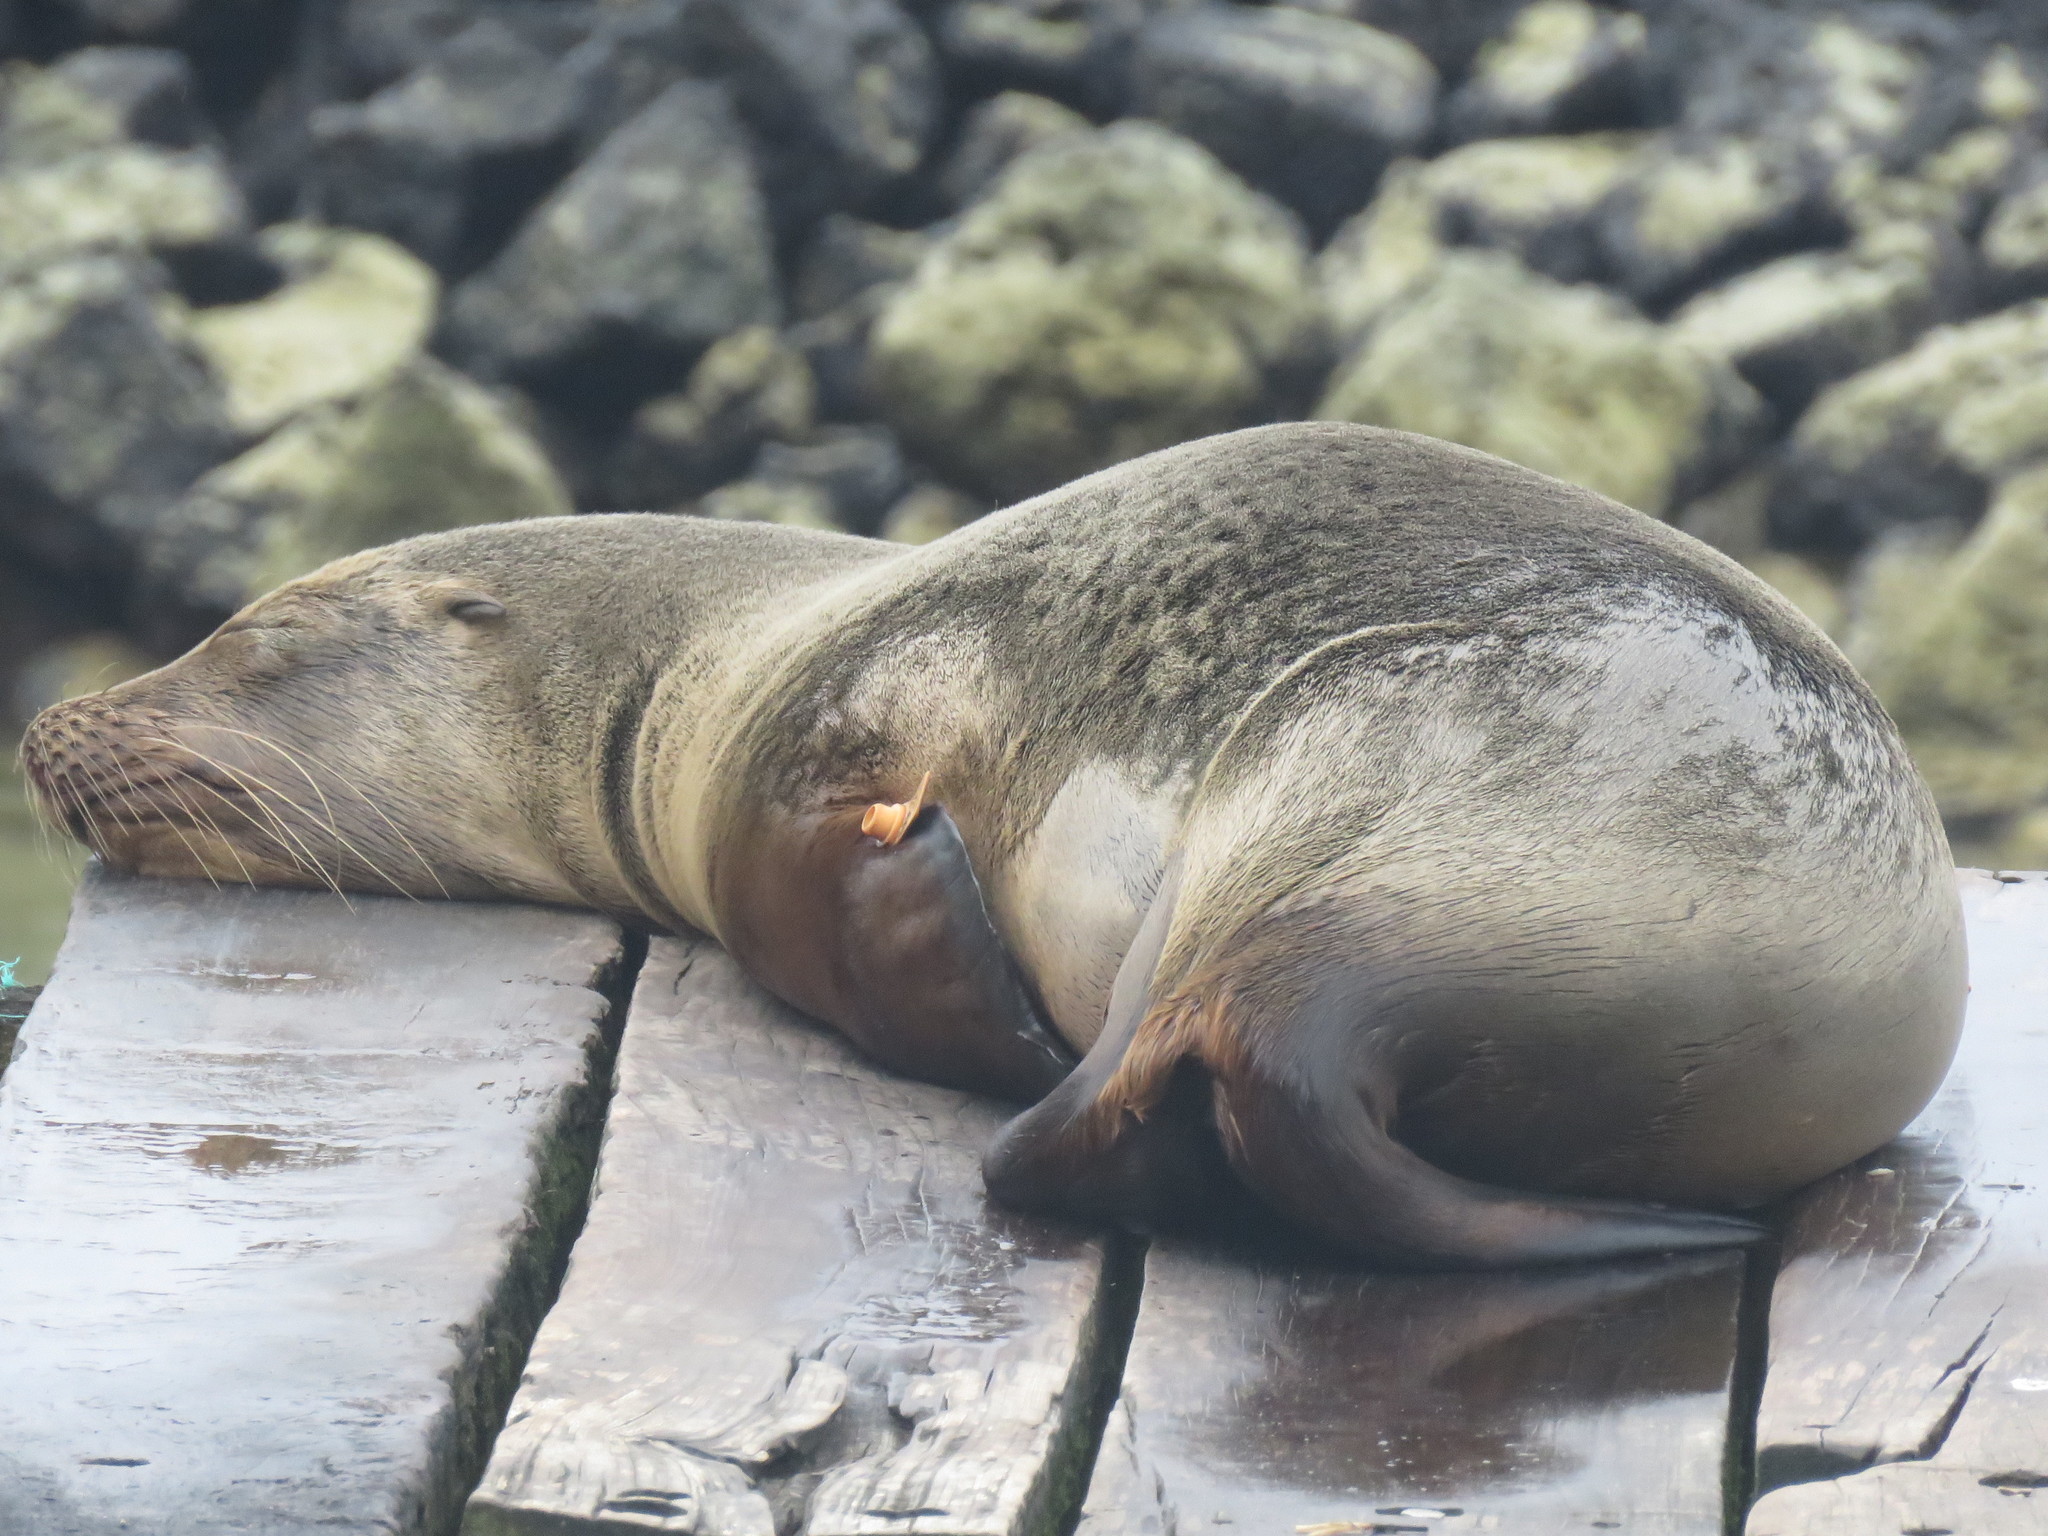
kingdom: Animalia
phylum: Chordata
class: Mammalia
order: Carnivora
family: Otariidae
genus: Zalophus
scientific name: Zalophus wollebaeki
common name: Galapagos sea lion
